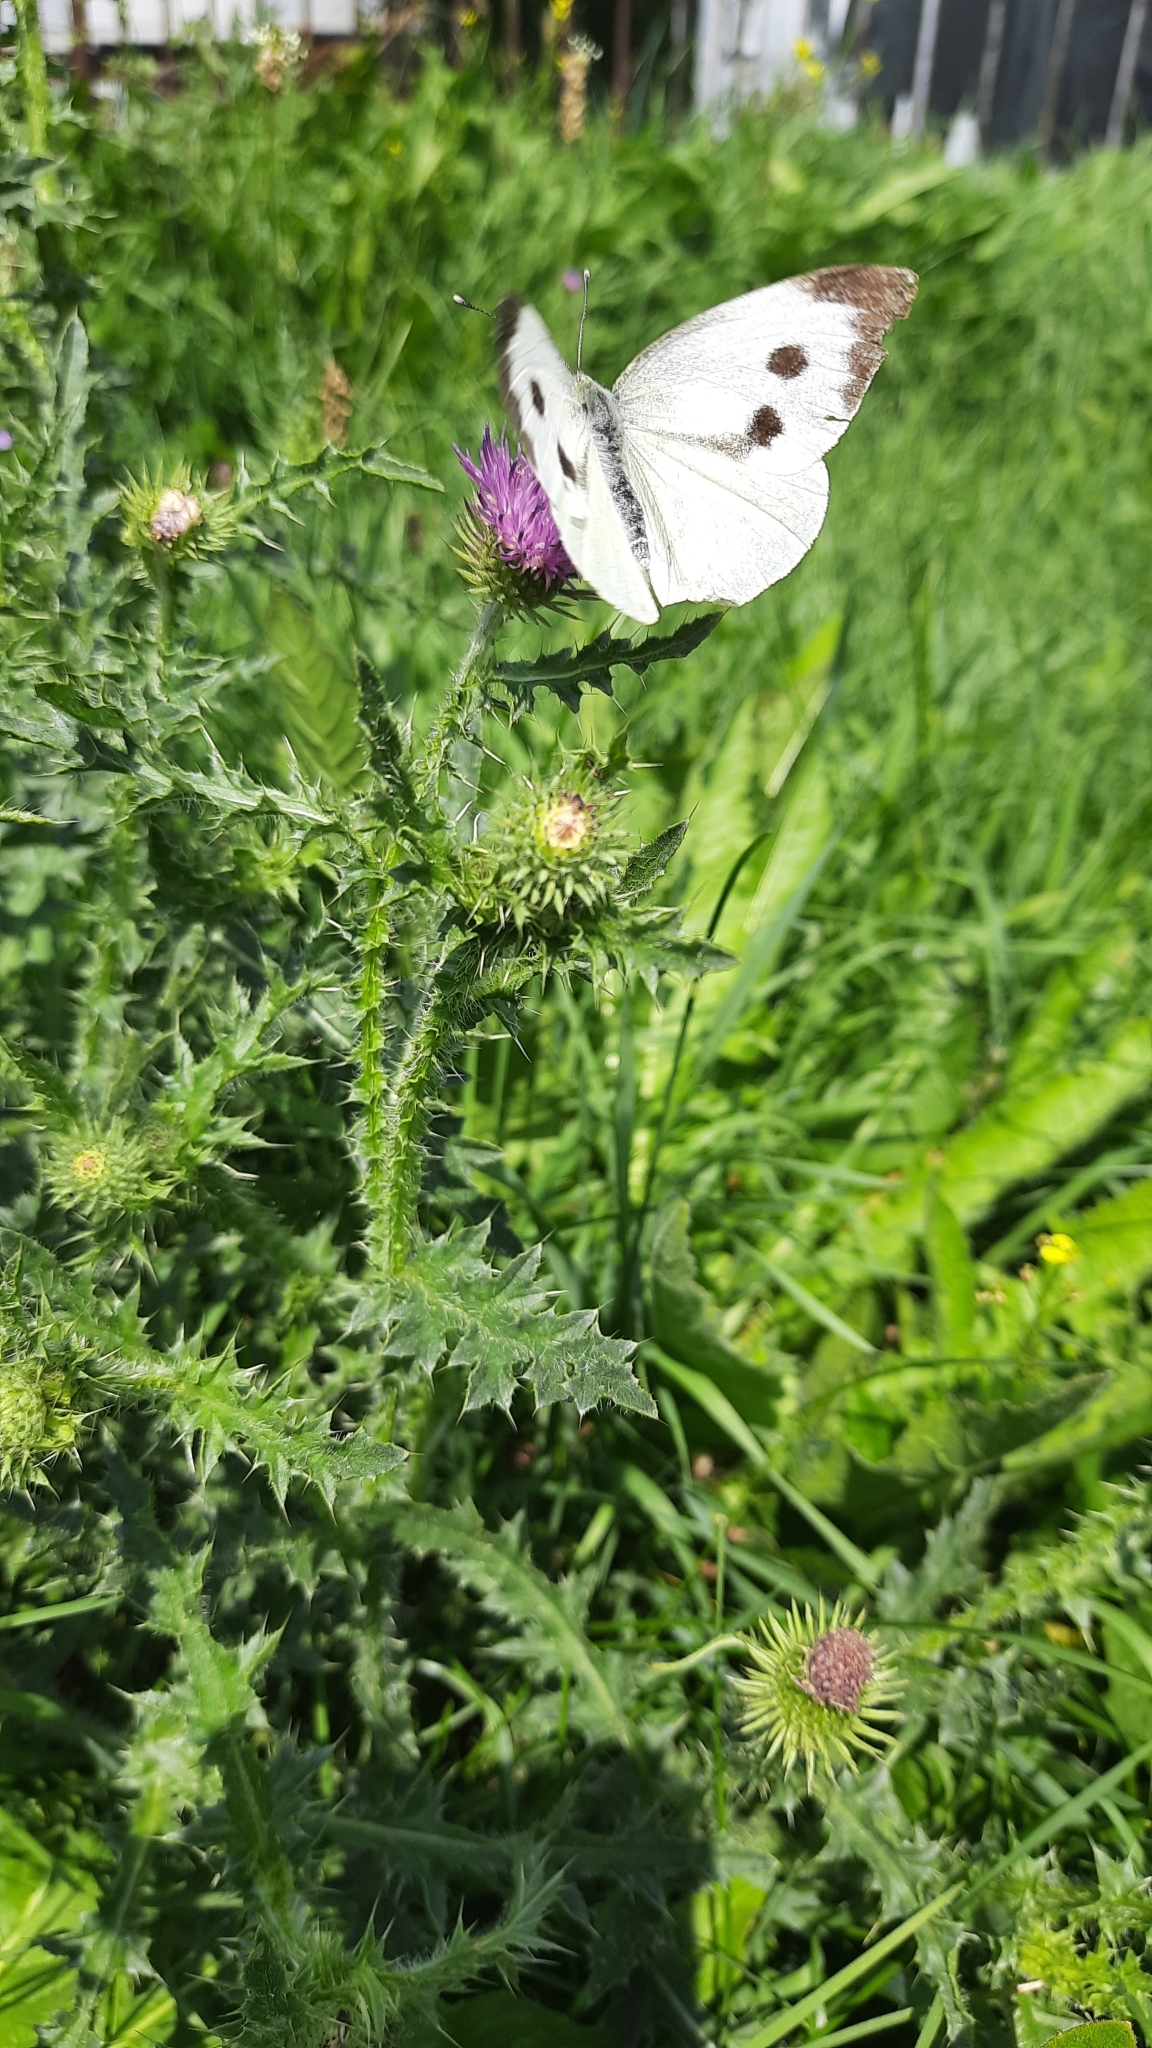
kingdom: Animalia
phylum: Arthropoda
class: Insecta
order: Lepidoptera
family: Pieridae
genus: Pieris
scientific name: Pieris brassicae
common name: Large white
